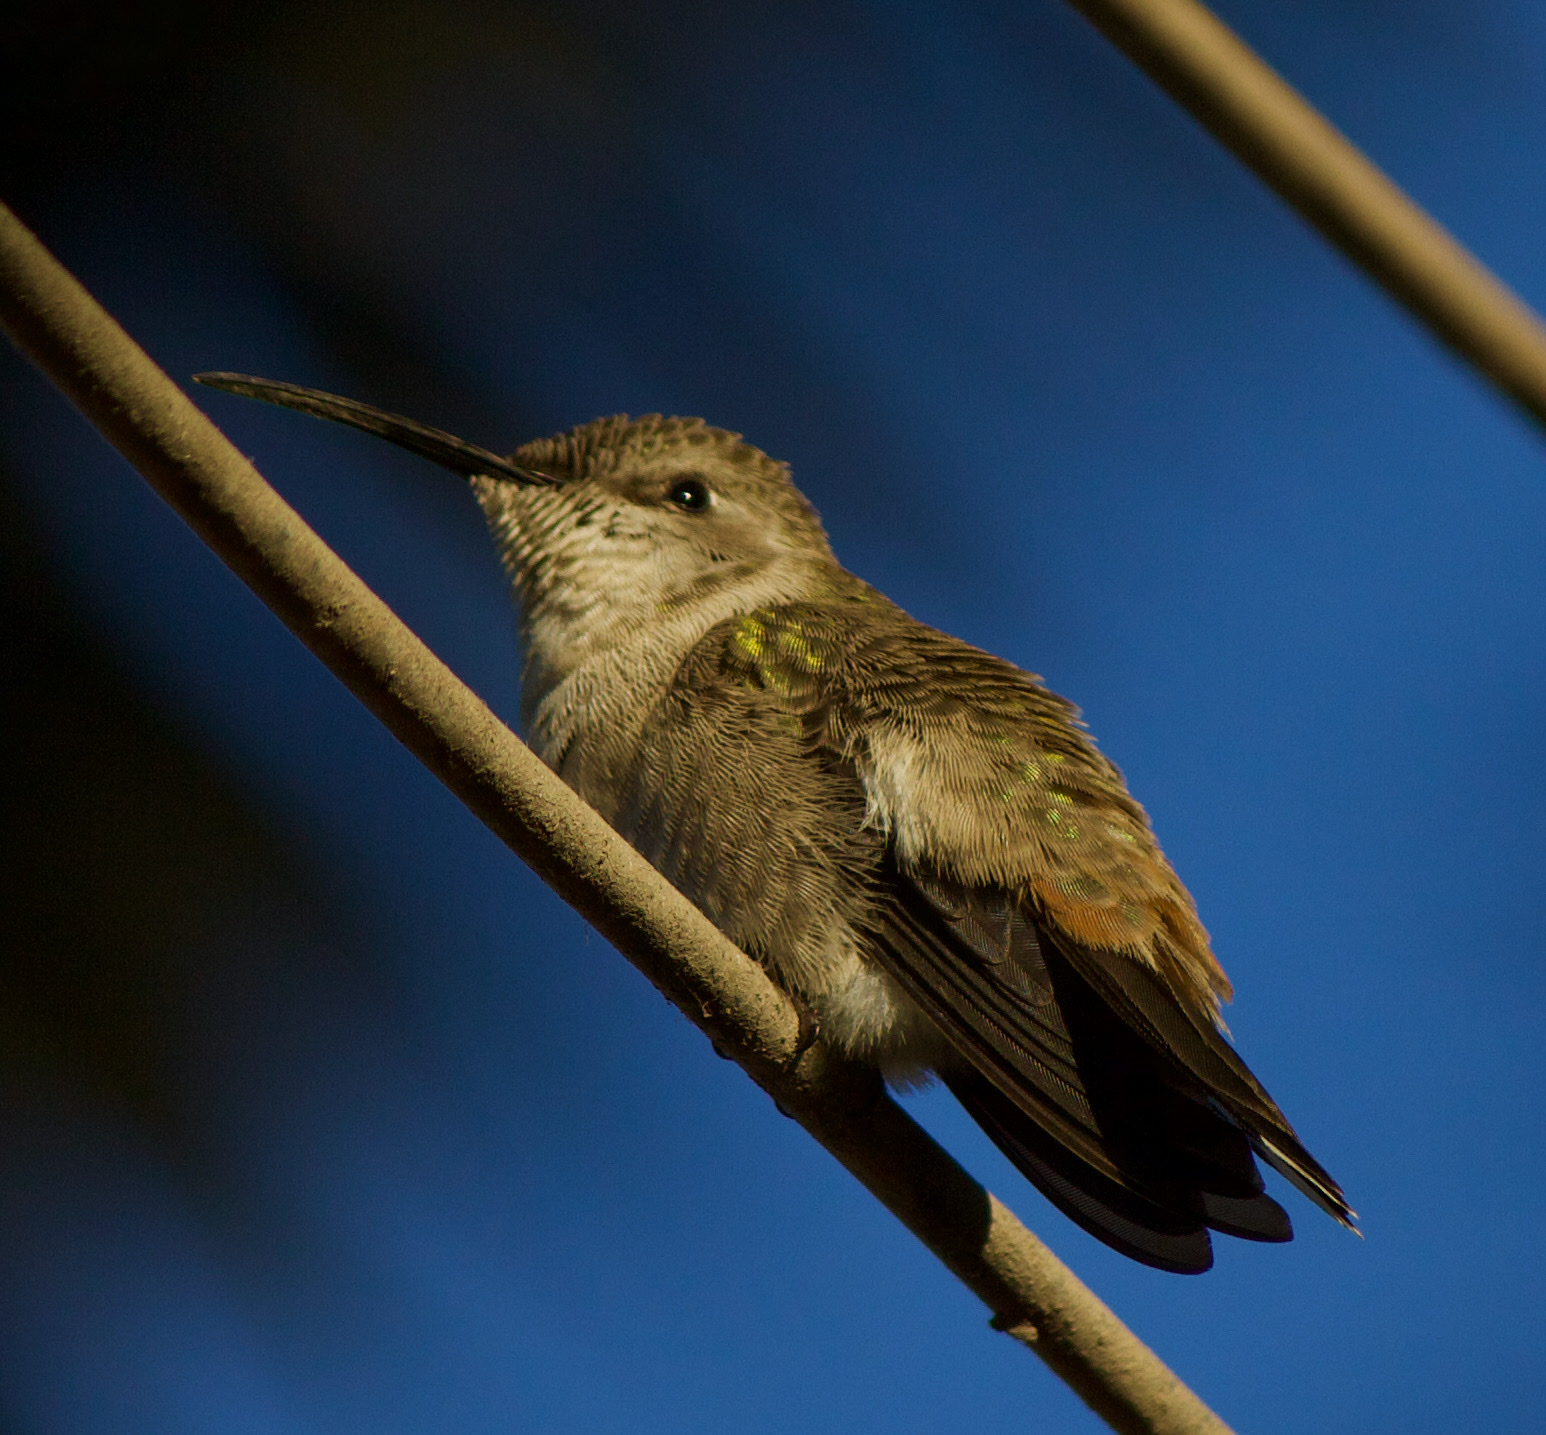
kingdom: Animalia
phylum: Chordata
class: Aves
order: Apodiformes
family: Trochilidae
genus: Rhodopis
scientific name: Rhodopis vesper
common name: Oasis hummingbird
